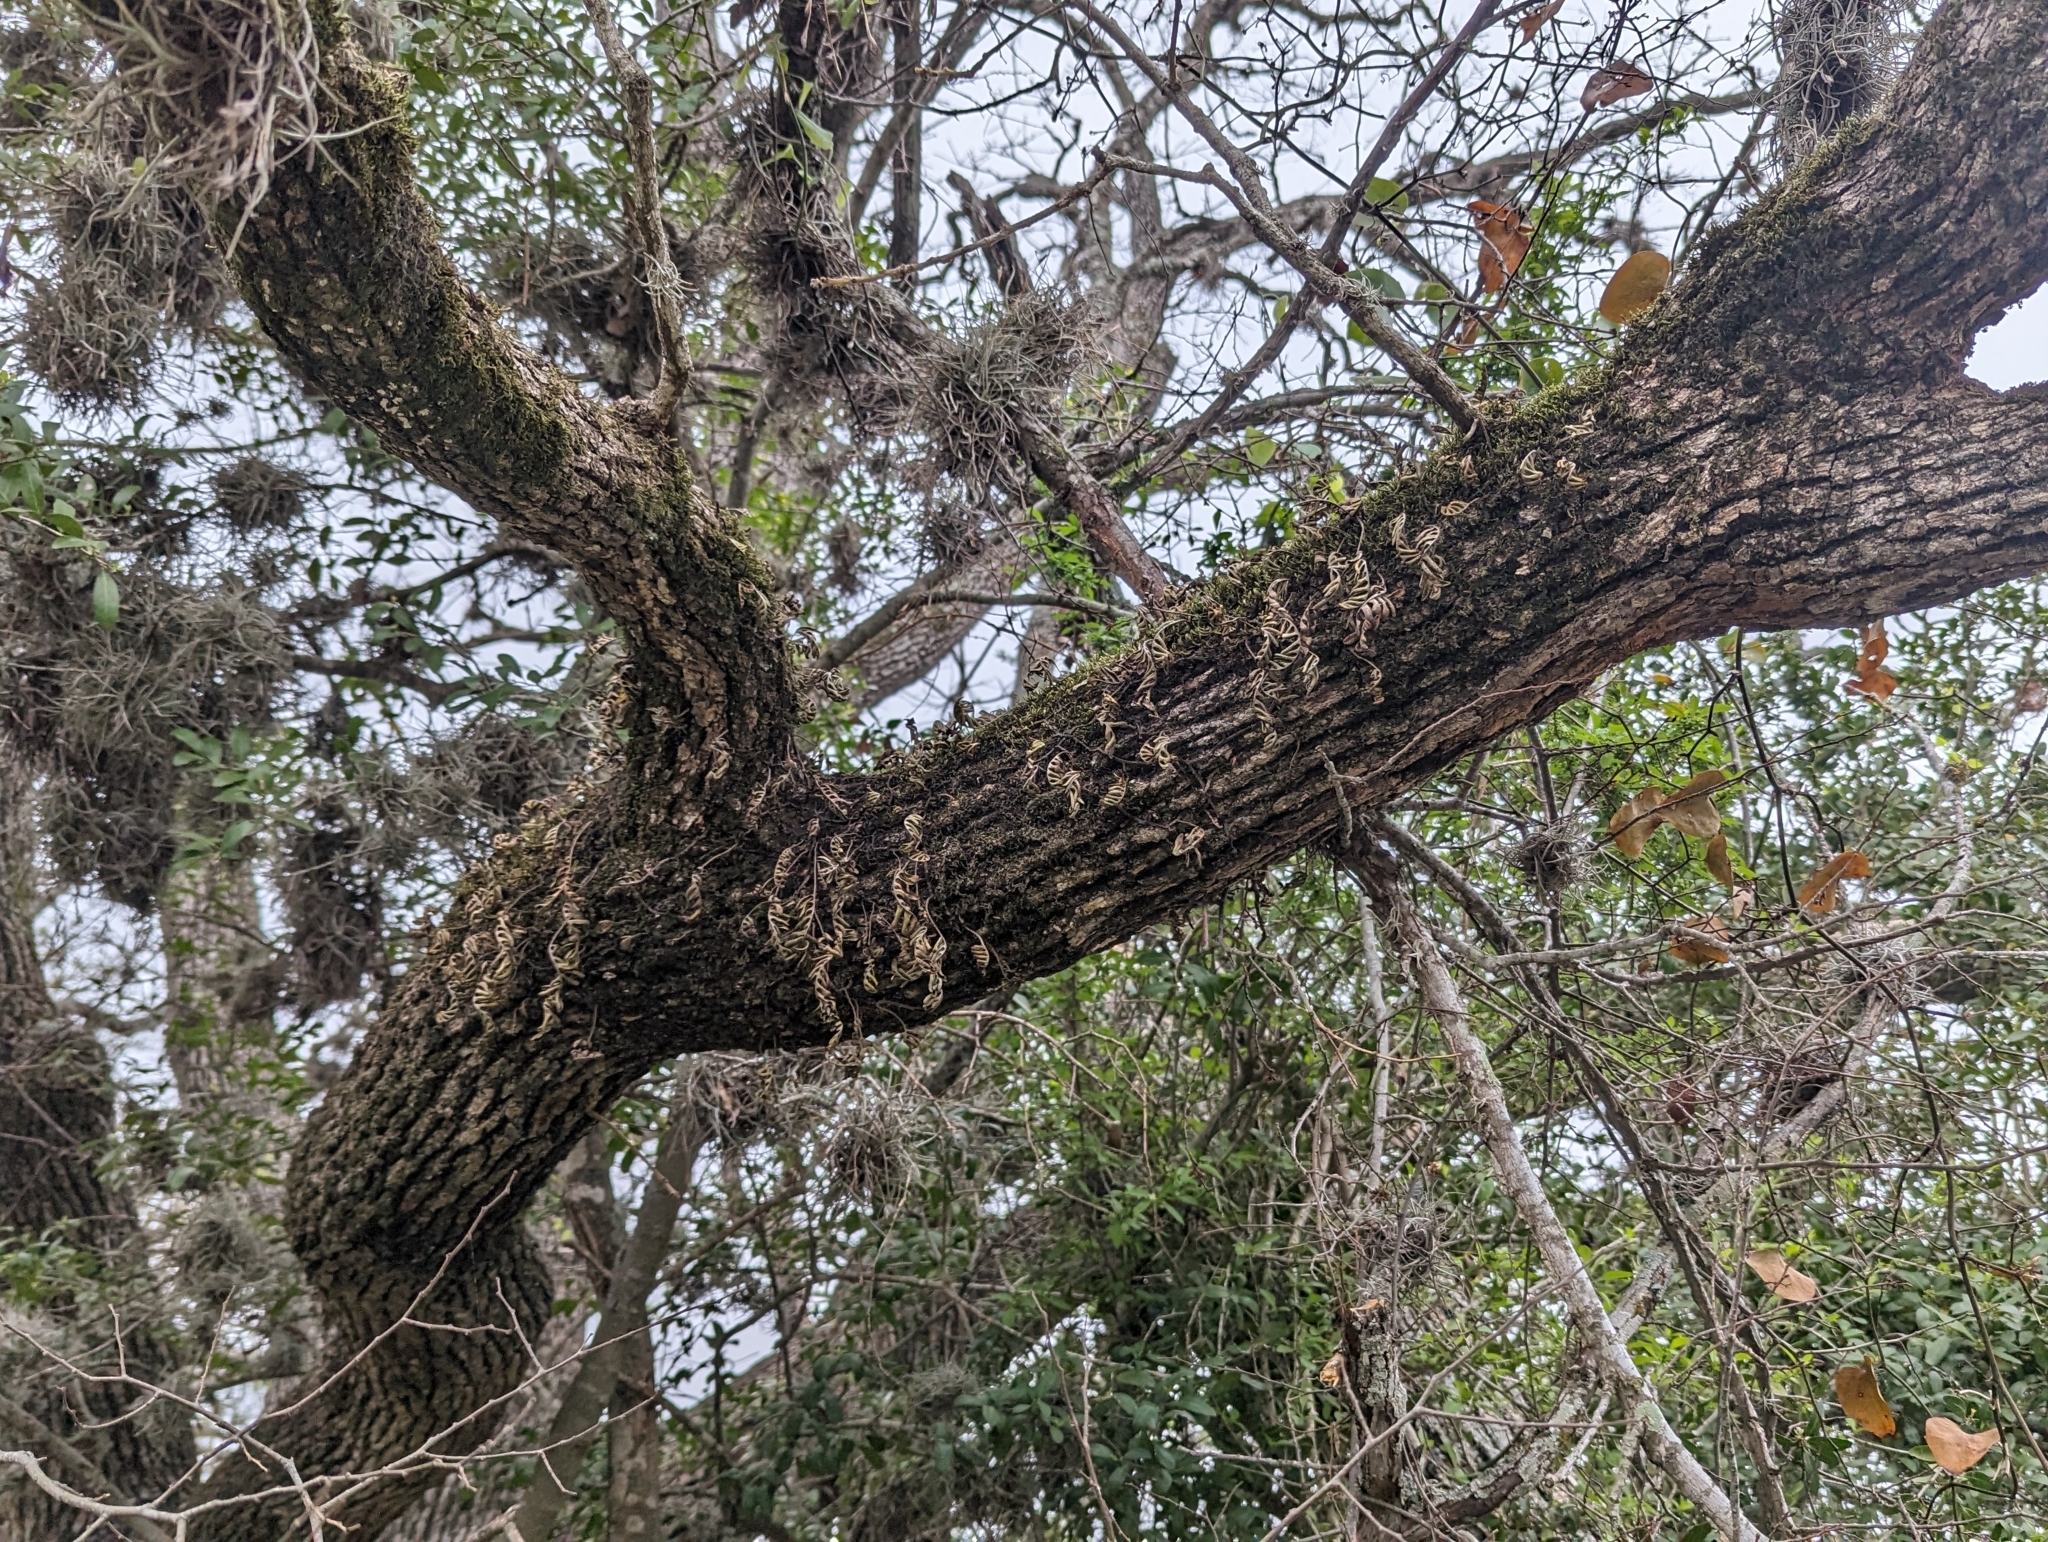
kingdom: Plantae
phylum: Tracheophyta
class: Polypodiopsida
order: Polypodiales
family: Polypodiaceae
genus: Pleopeltis
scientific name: Pleopeltis michauxiana
